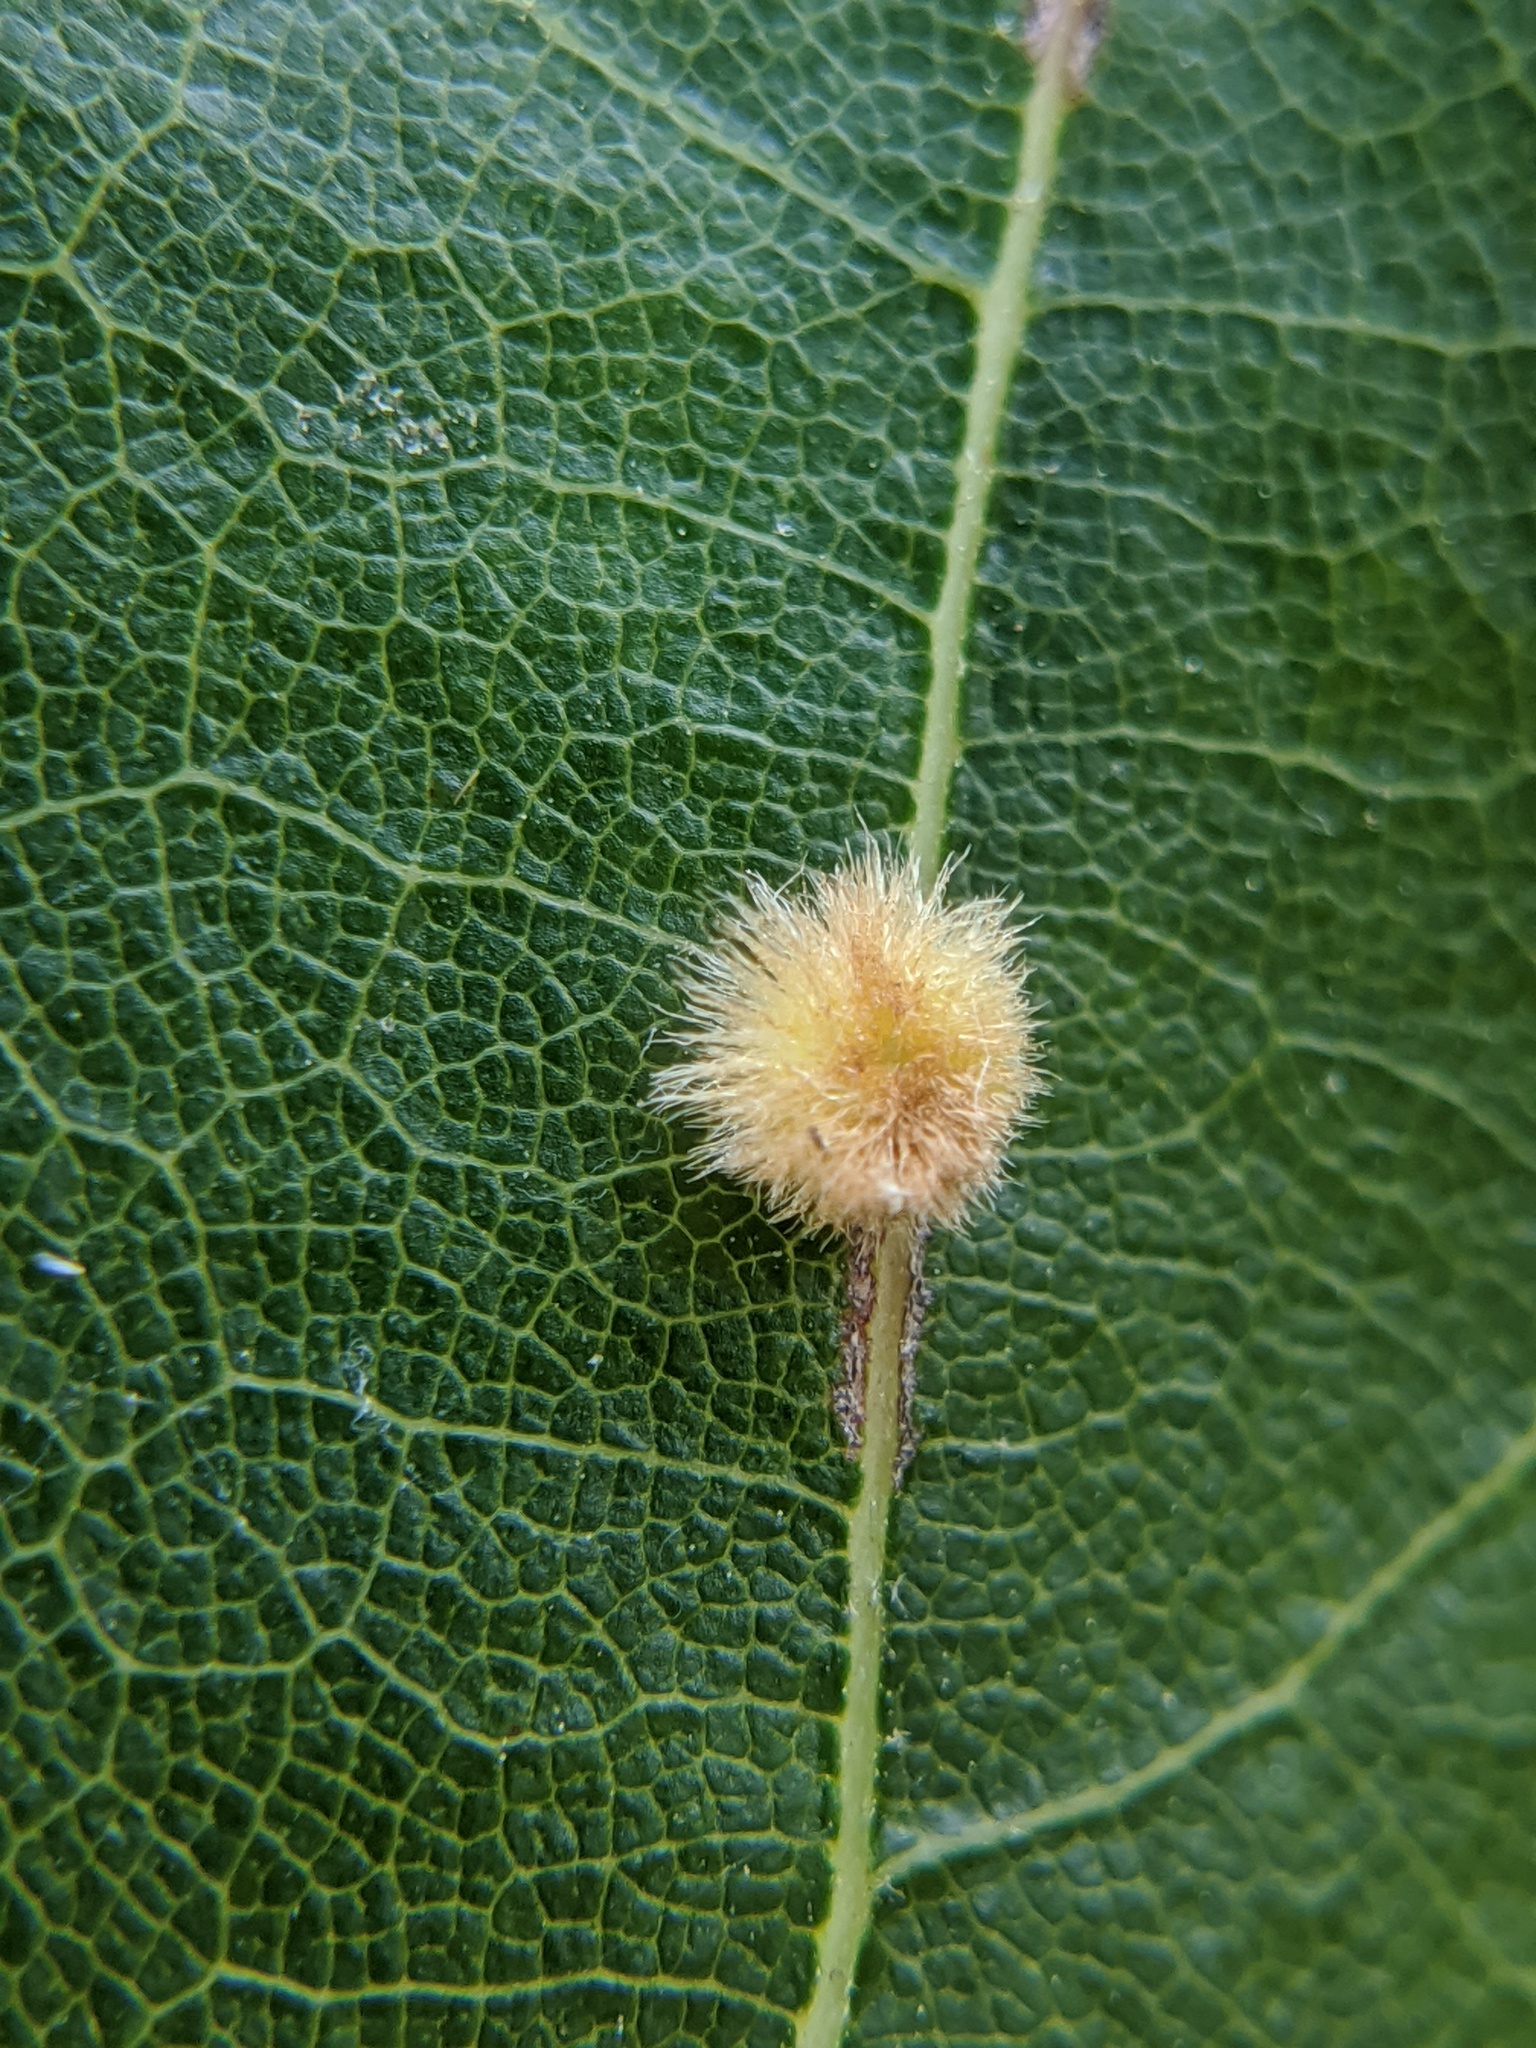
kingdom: Animalia
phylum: Arthropoda
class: Insecta
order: Hymenoptera
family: Cynipidae
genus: Callirhytis
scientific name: Callirhytis
